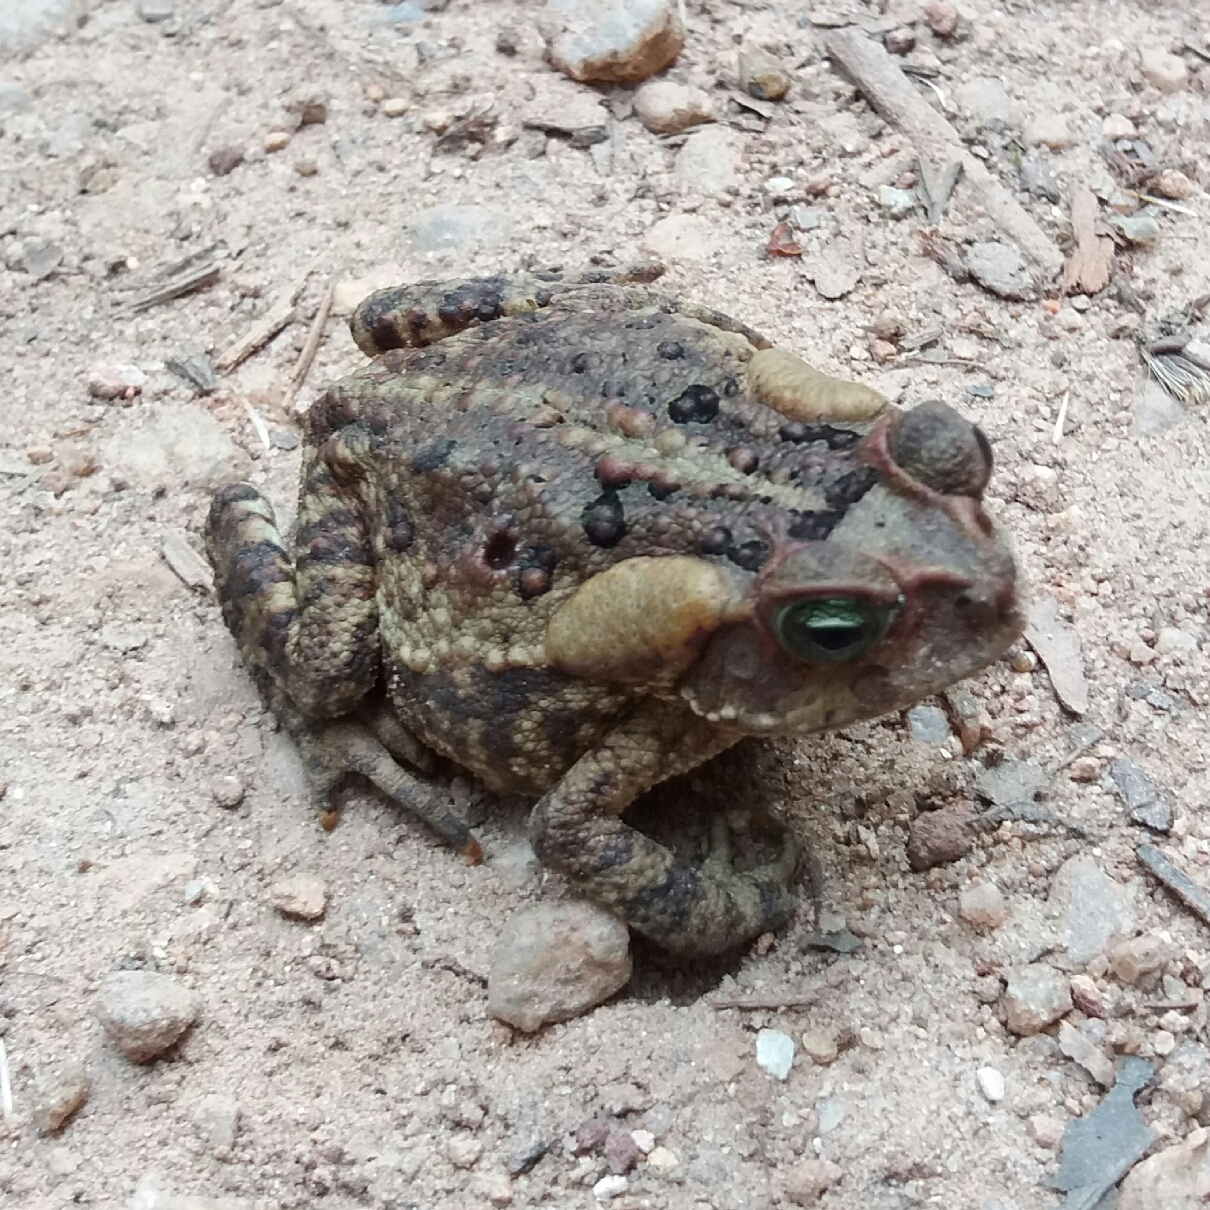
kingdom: Animalia
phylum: Chordata
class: Amphibia
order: Anura
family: Bufonidae
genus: Rhinella
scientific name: Rhinella diptycha
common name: Cope's toad
